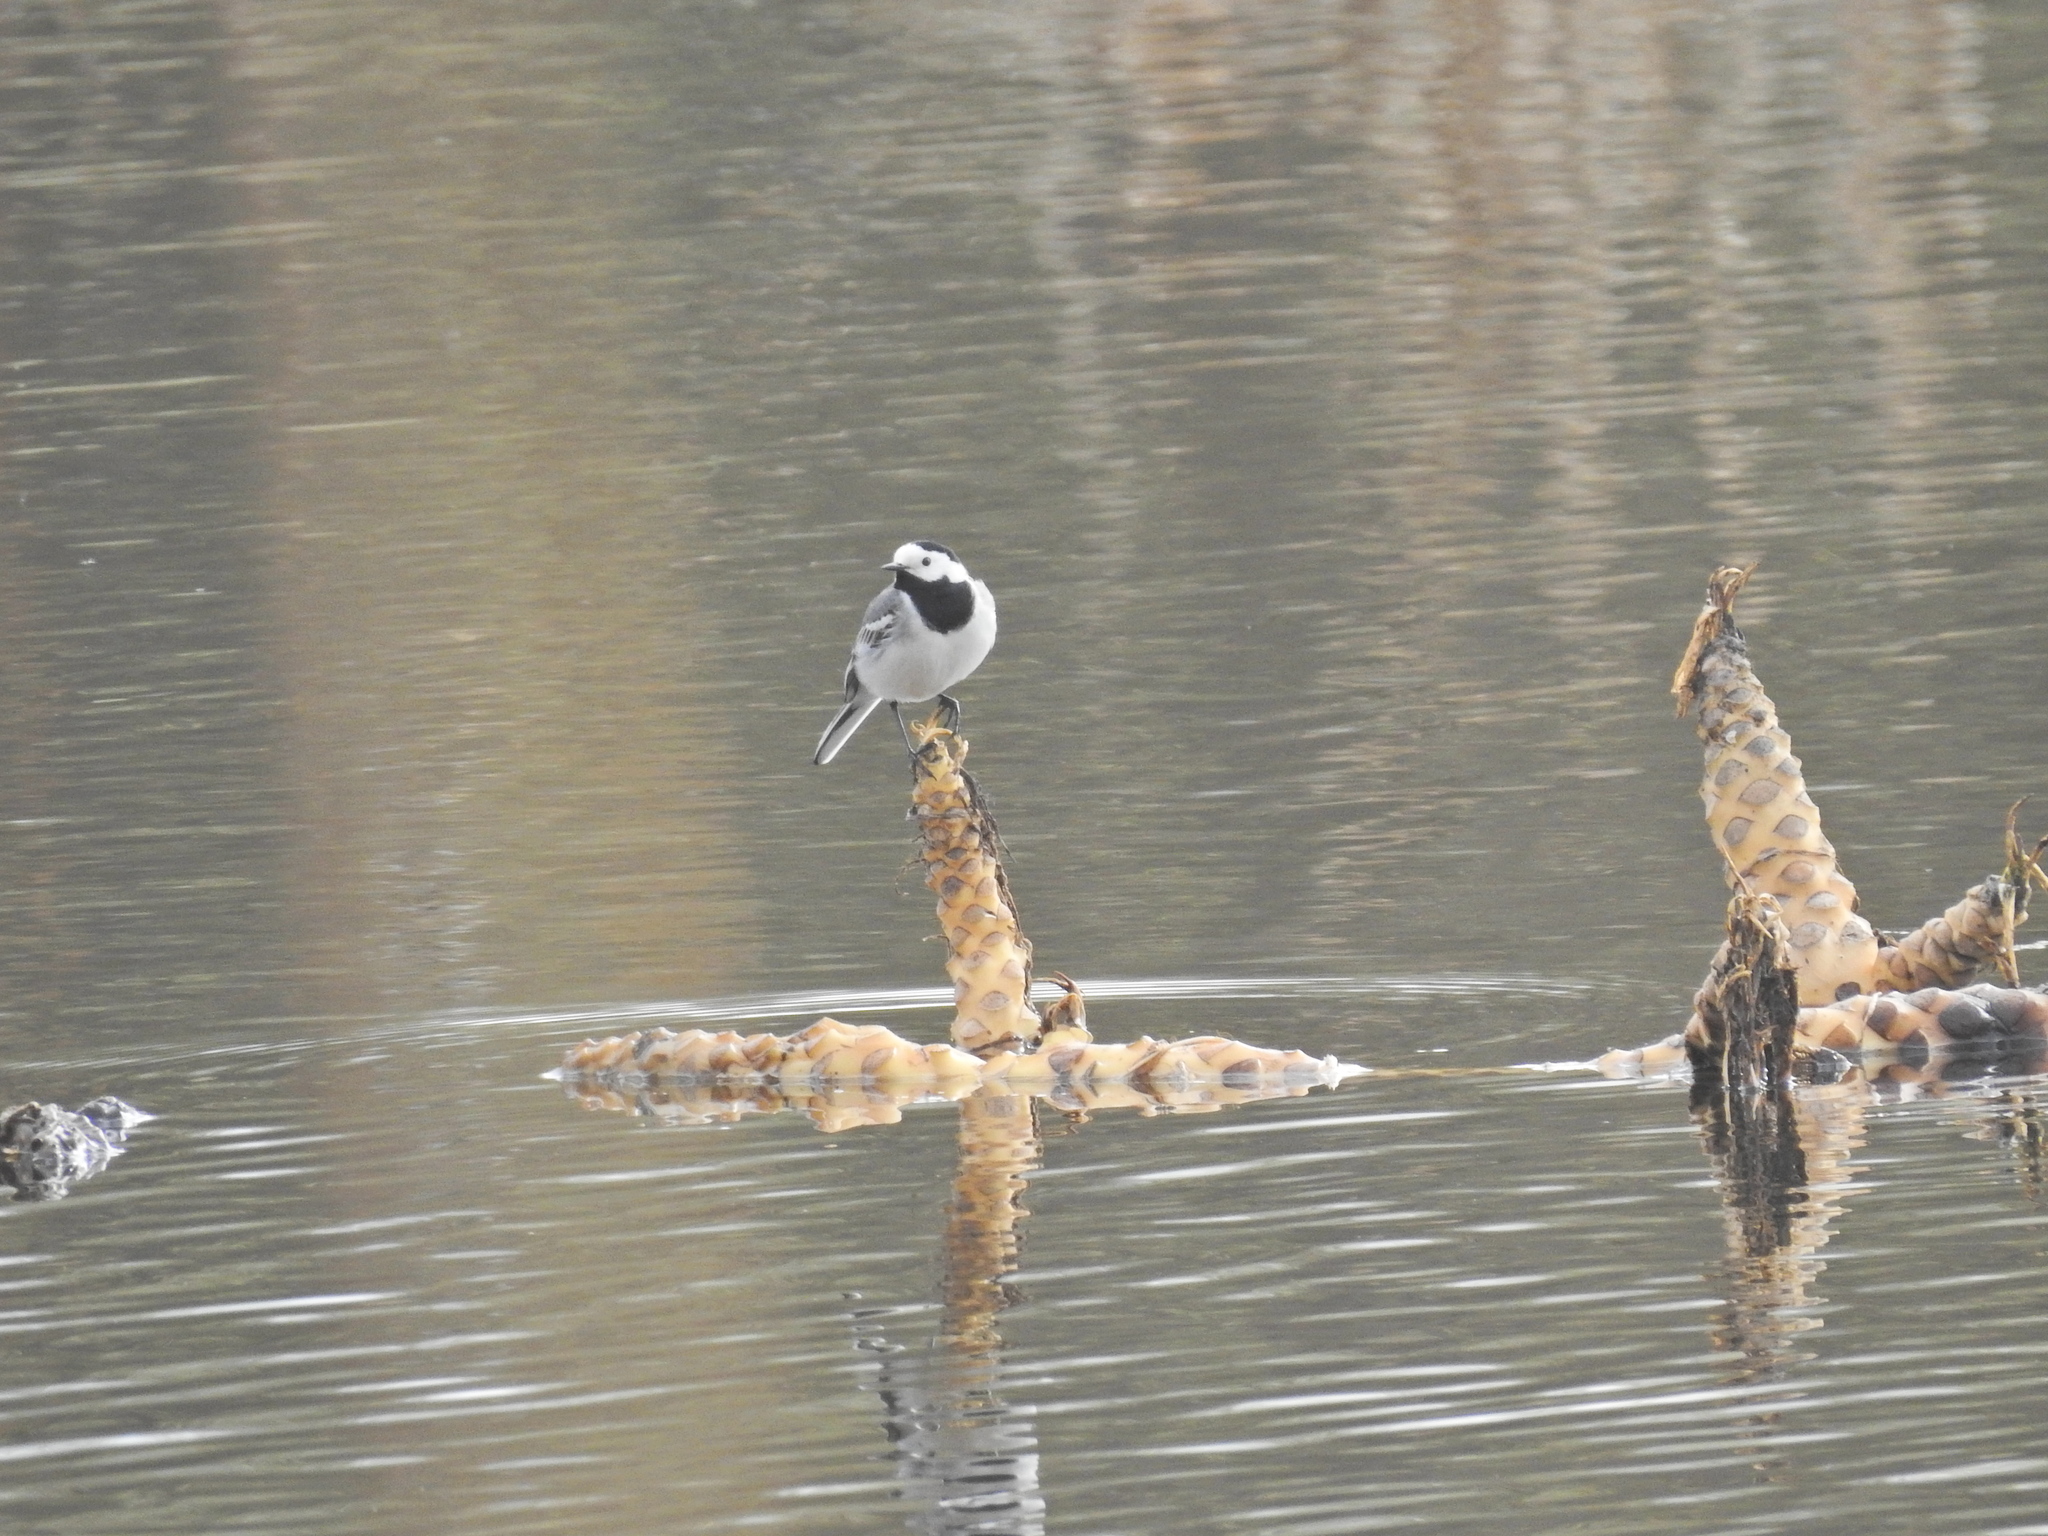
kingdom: Animalia
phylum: Chordata
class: Aves
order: Passeriformes
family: Motacillidae
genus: Motacilla
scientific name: Motacilla alba
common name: White wagtail
